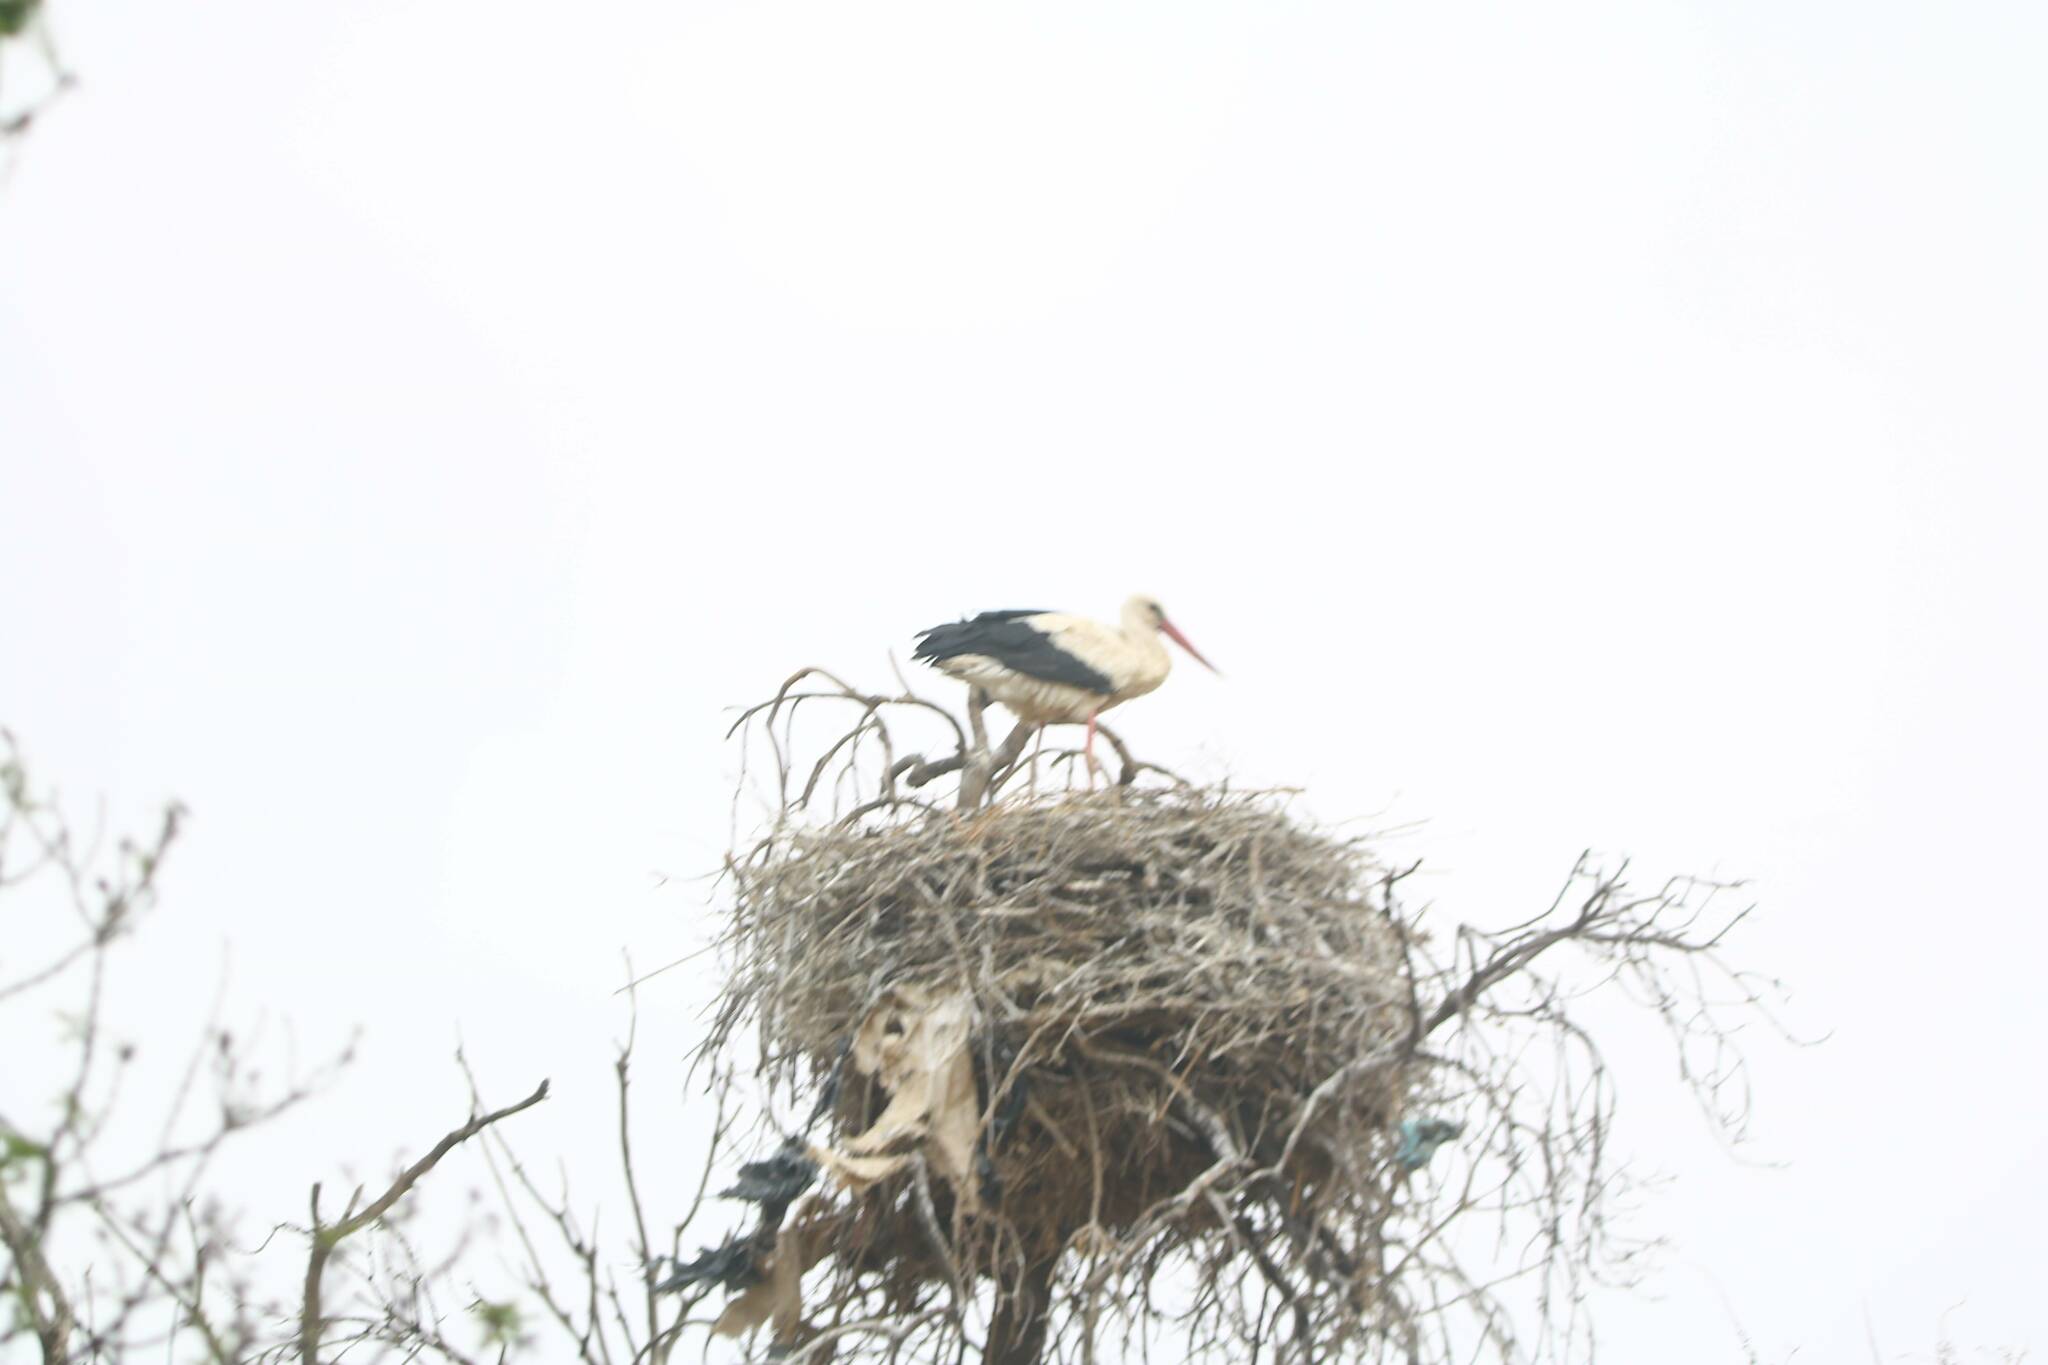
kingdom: Animalia
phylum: Chordata
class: Aves
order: Ciconiiformes
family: Ciconiidae
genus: Ciconia
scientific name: Ciconia ciconia
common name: White stork
